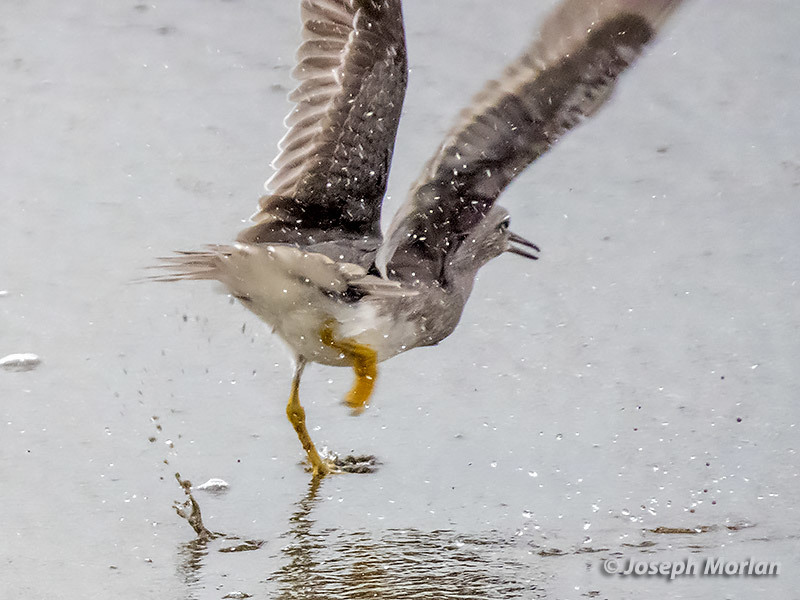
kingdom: Animalia
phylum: Chordata
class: Aves
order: Charadriiformes
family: Scolopacidae
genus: Tringa
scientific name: Tringa incana
